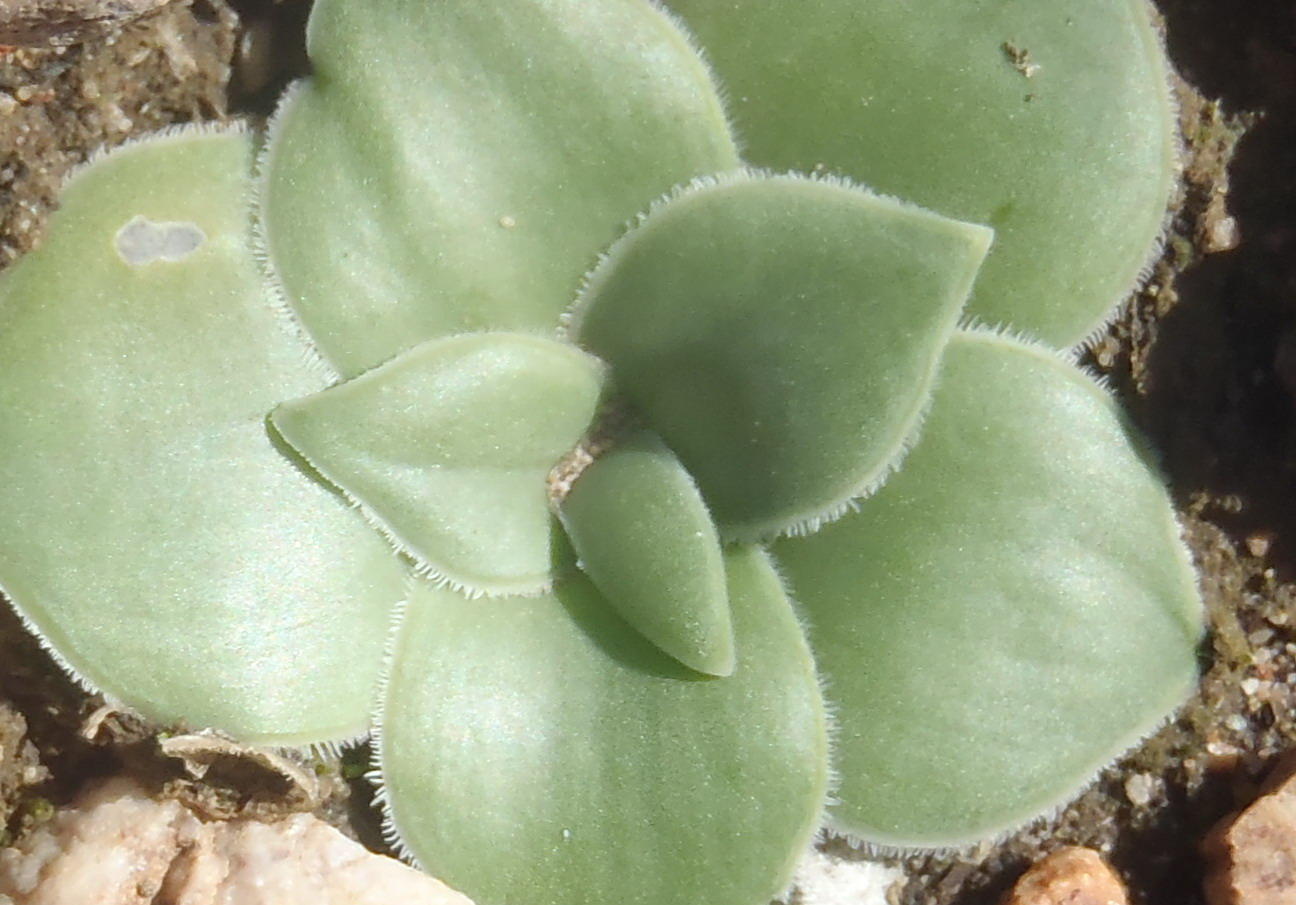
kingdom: Plantae
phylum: Tracheophyta
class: Liliopsida
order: Asparagales
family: Asparagaceae
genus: Drimia
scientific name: Drimia ciliata
